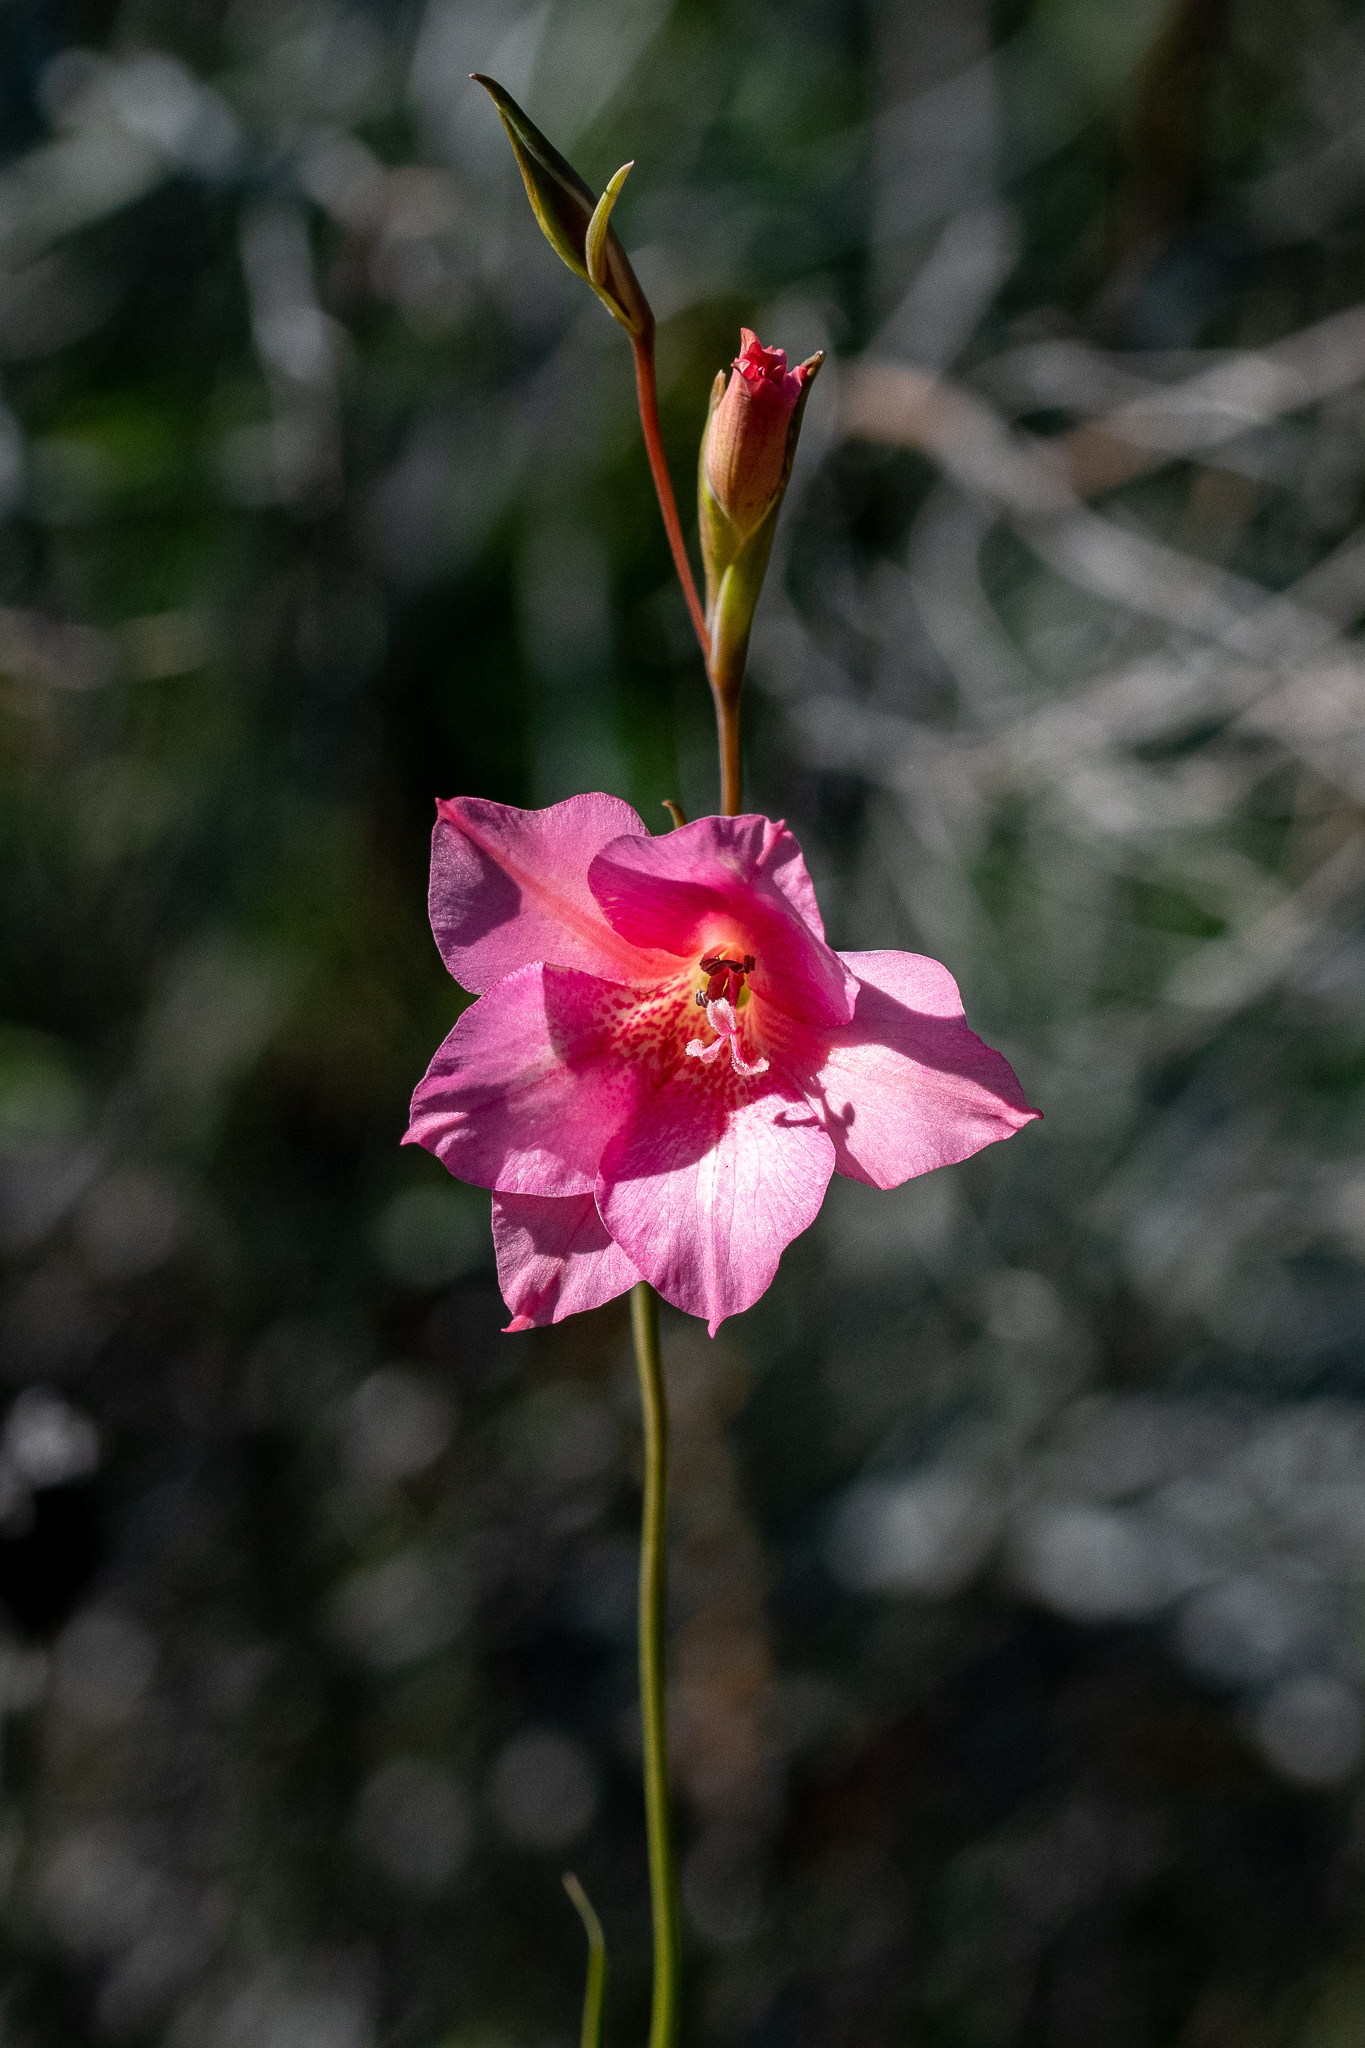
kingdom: Plantae
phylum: Tracheophyta
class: Liliopsida
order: Asparagales
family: Iridaceae
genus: Gladiolus
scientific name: Gladiolus meridionalis
